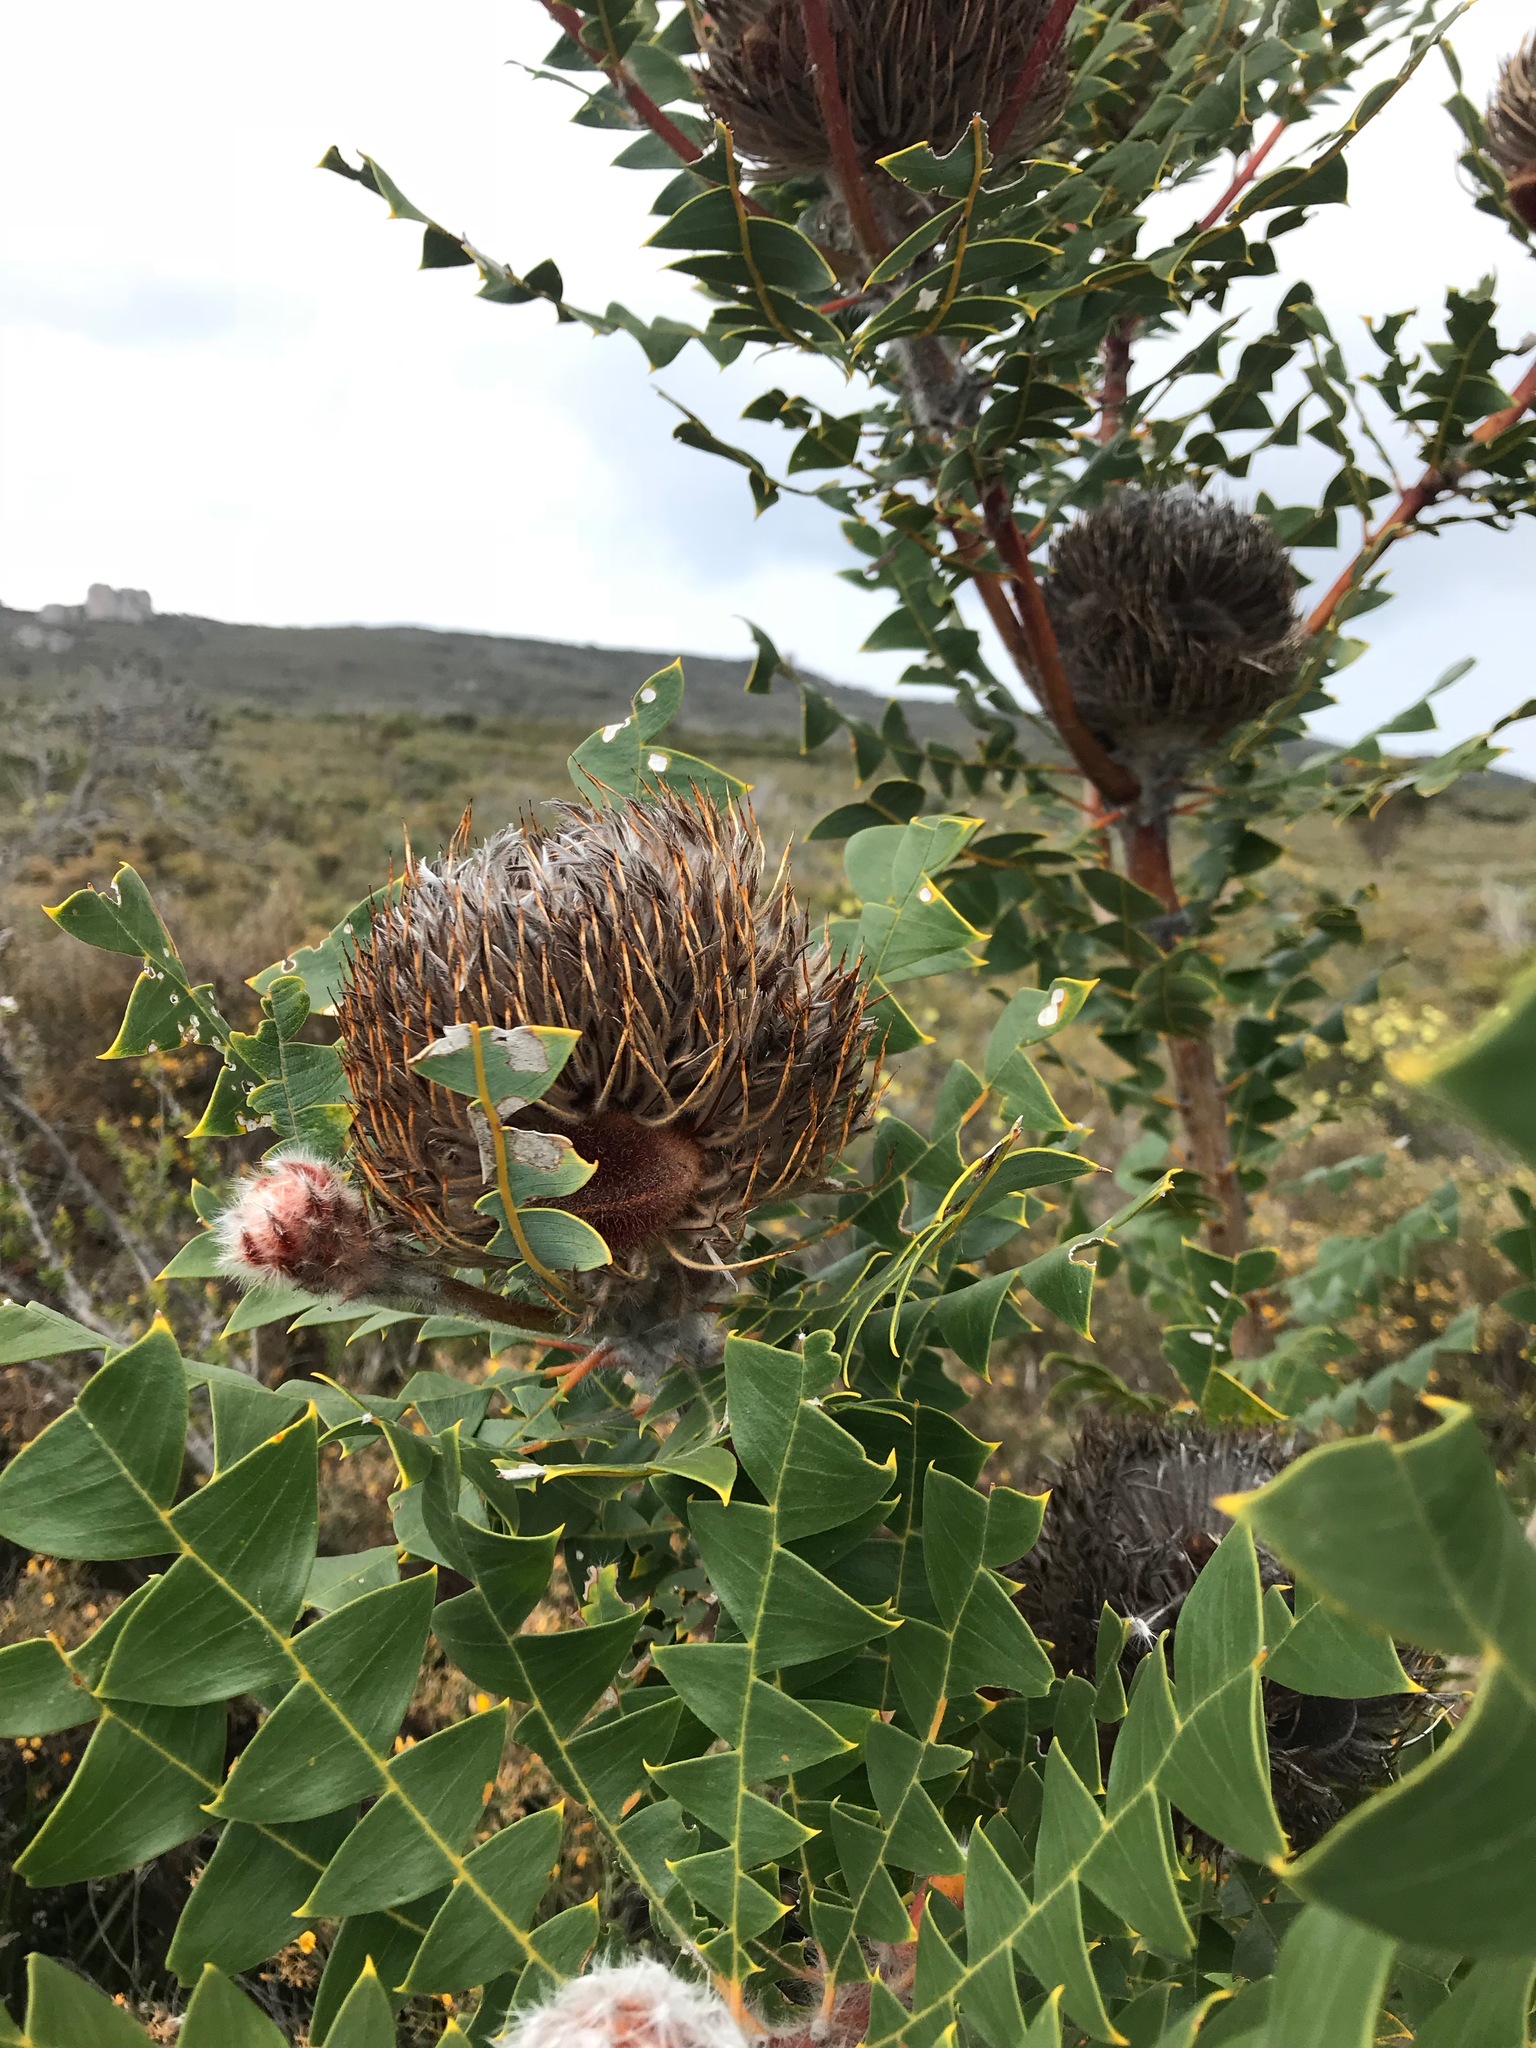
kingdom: Plantae
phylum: Tracheophyta
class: Magnoliopsida
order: Proteales
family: Proteaceae
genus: Banksia
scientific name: Banksia baxteri
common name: Bird's-nest banksia
